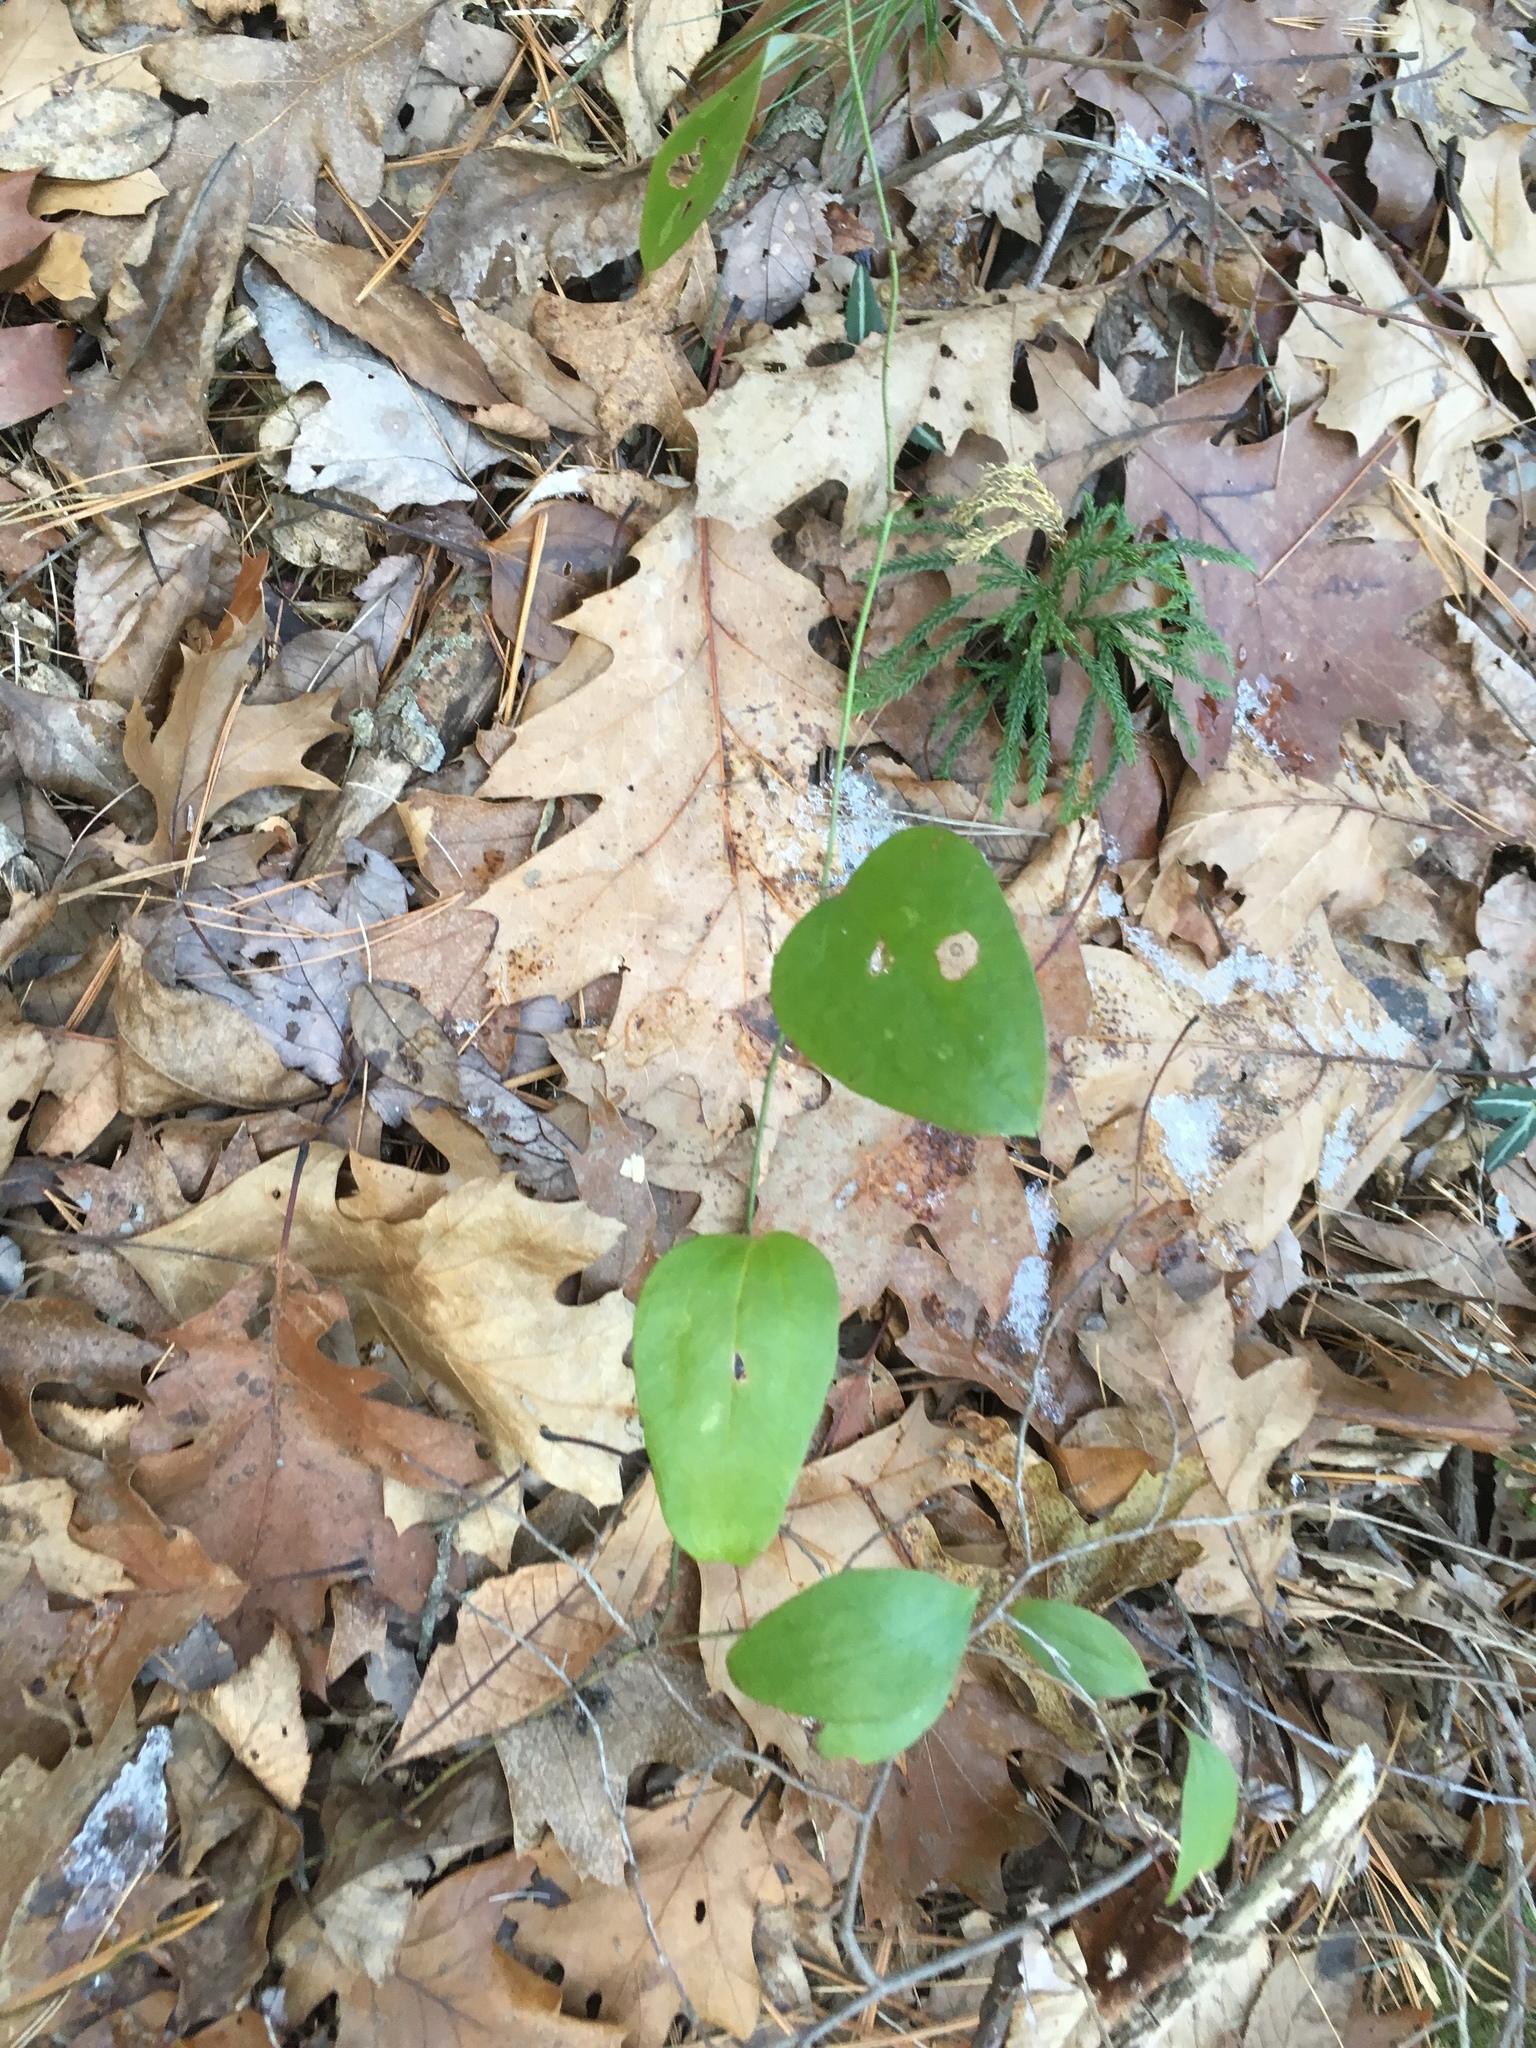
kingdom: Plantae
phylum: Tracheophyta
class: Liliopsida
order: Liliales
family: Smilacaceae
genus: Smilax
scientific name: Smilax glauca
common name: Cat greenbrier
